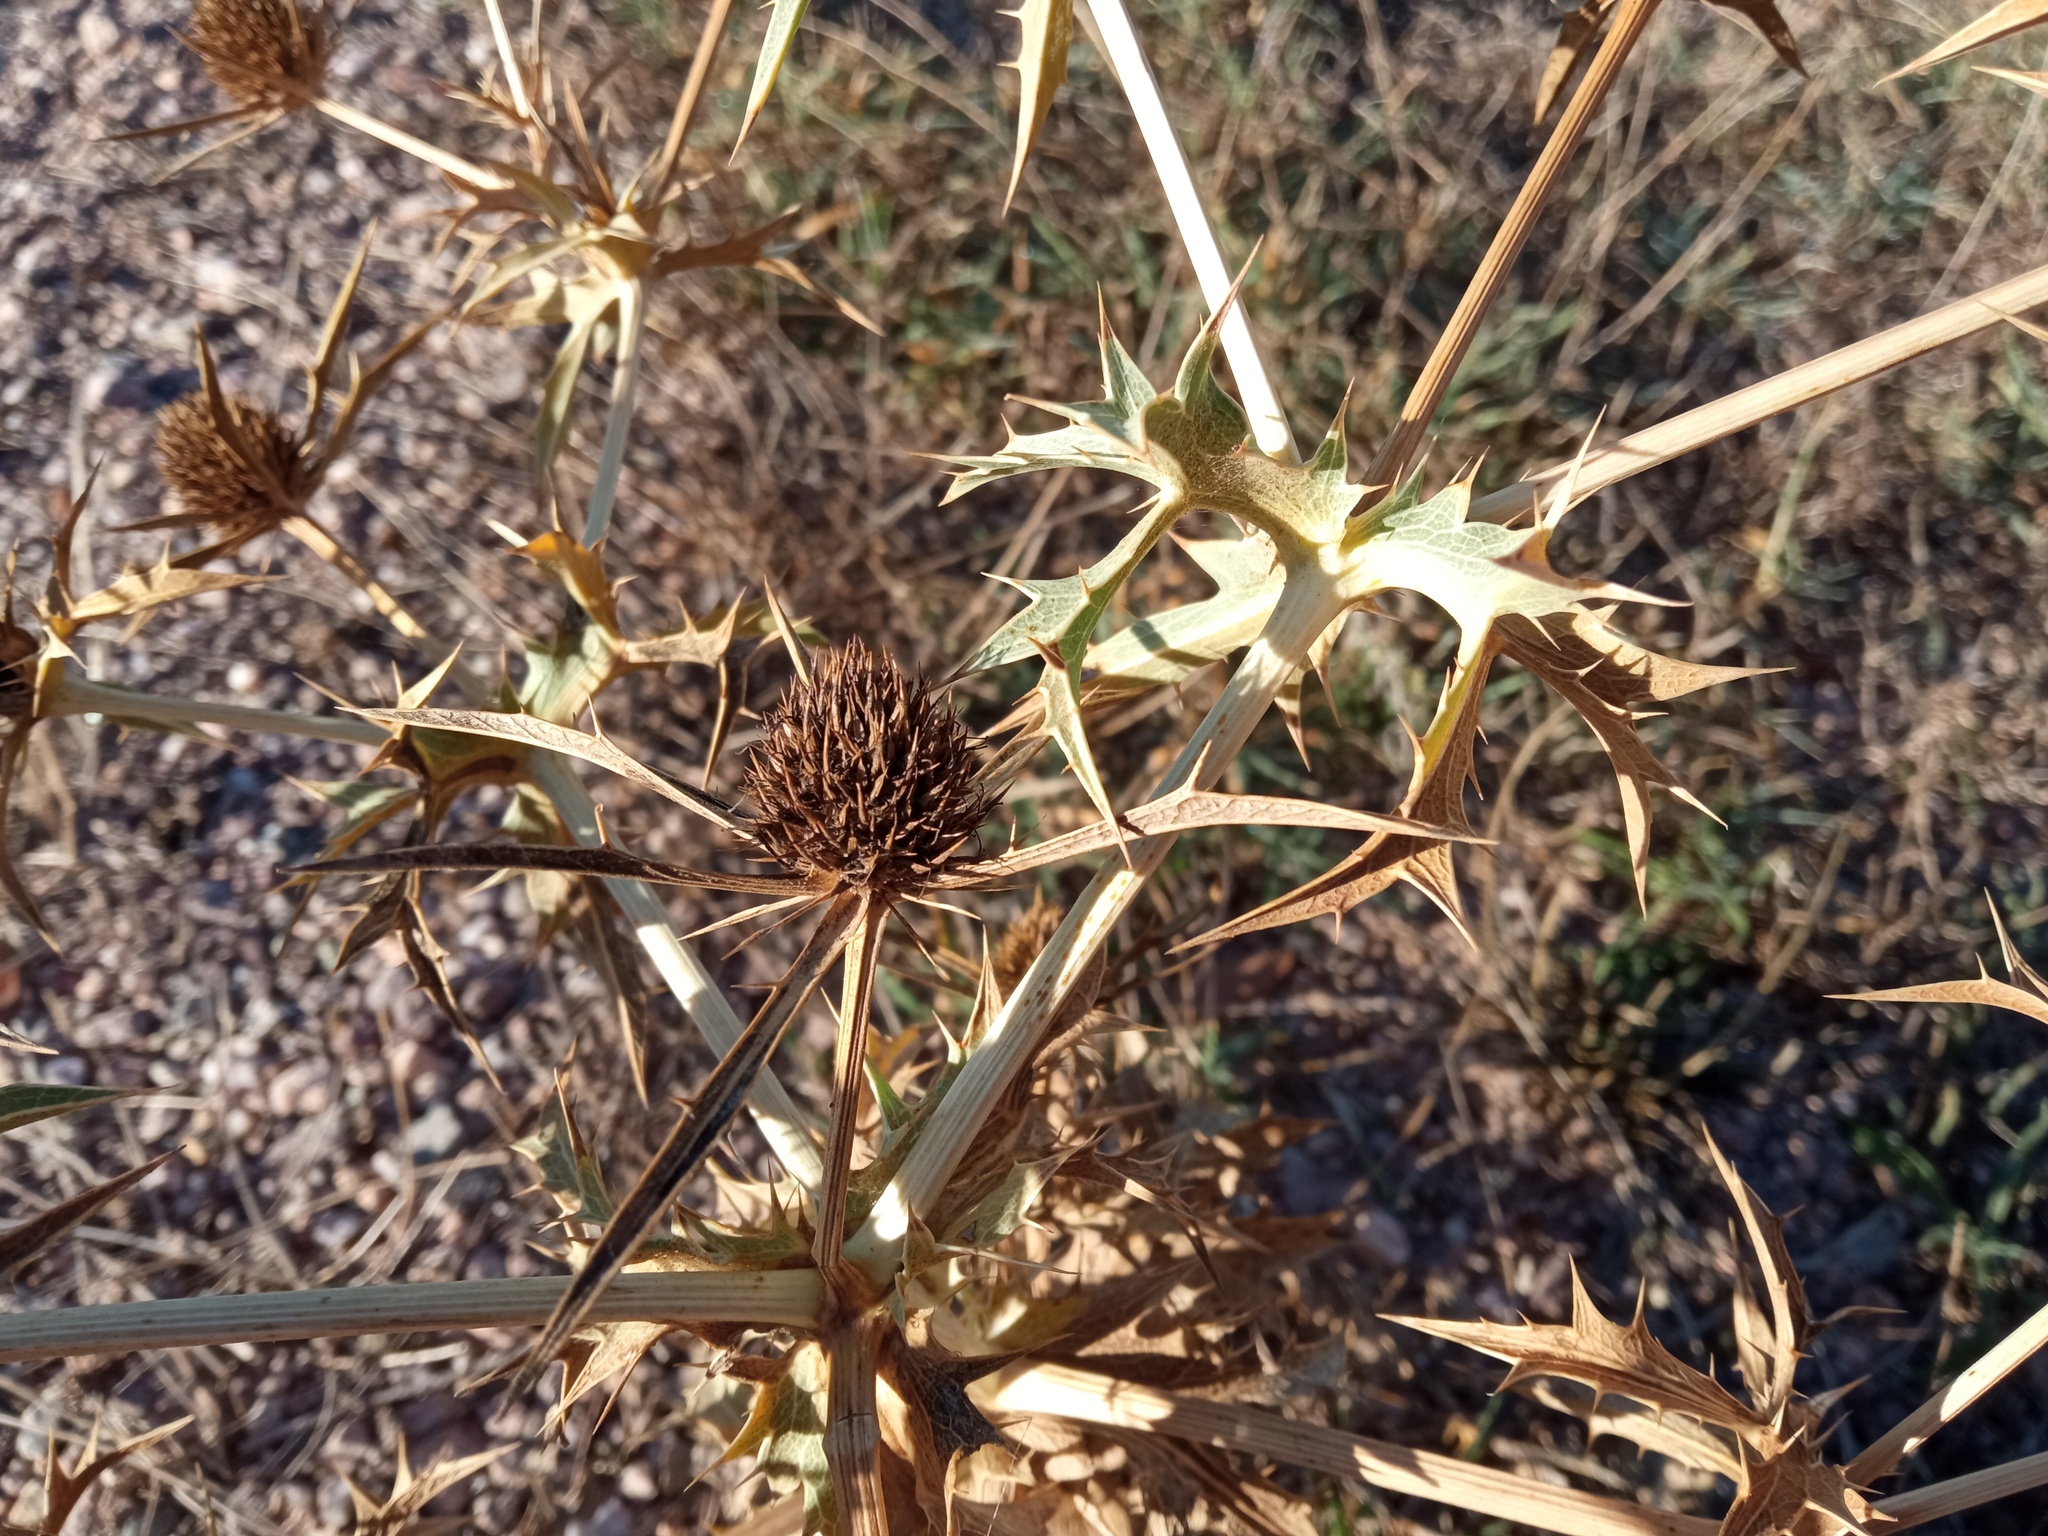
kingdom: Plantae
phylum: Tracheophyta
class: Magnoliopsida
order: Apiales
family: Apiaceae
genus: Eryngium
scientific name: Eryngium campestre
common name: Field eryngo
